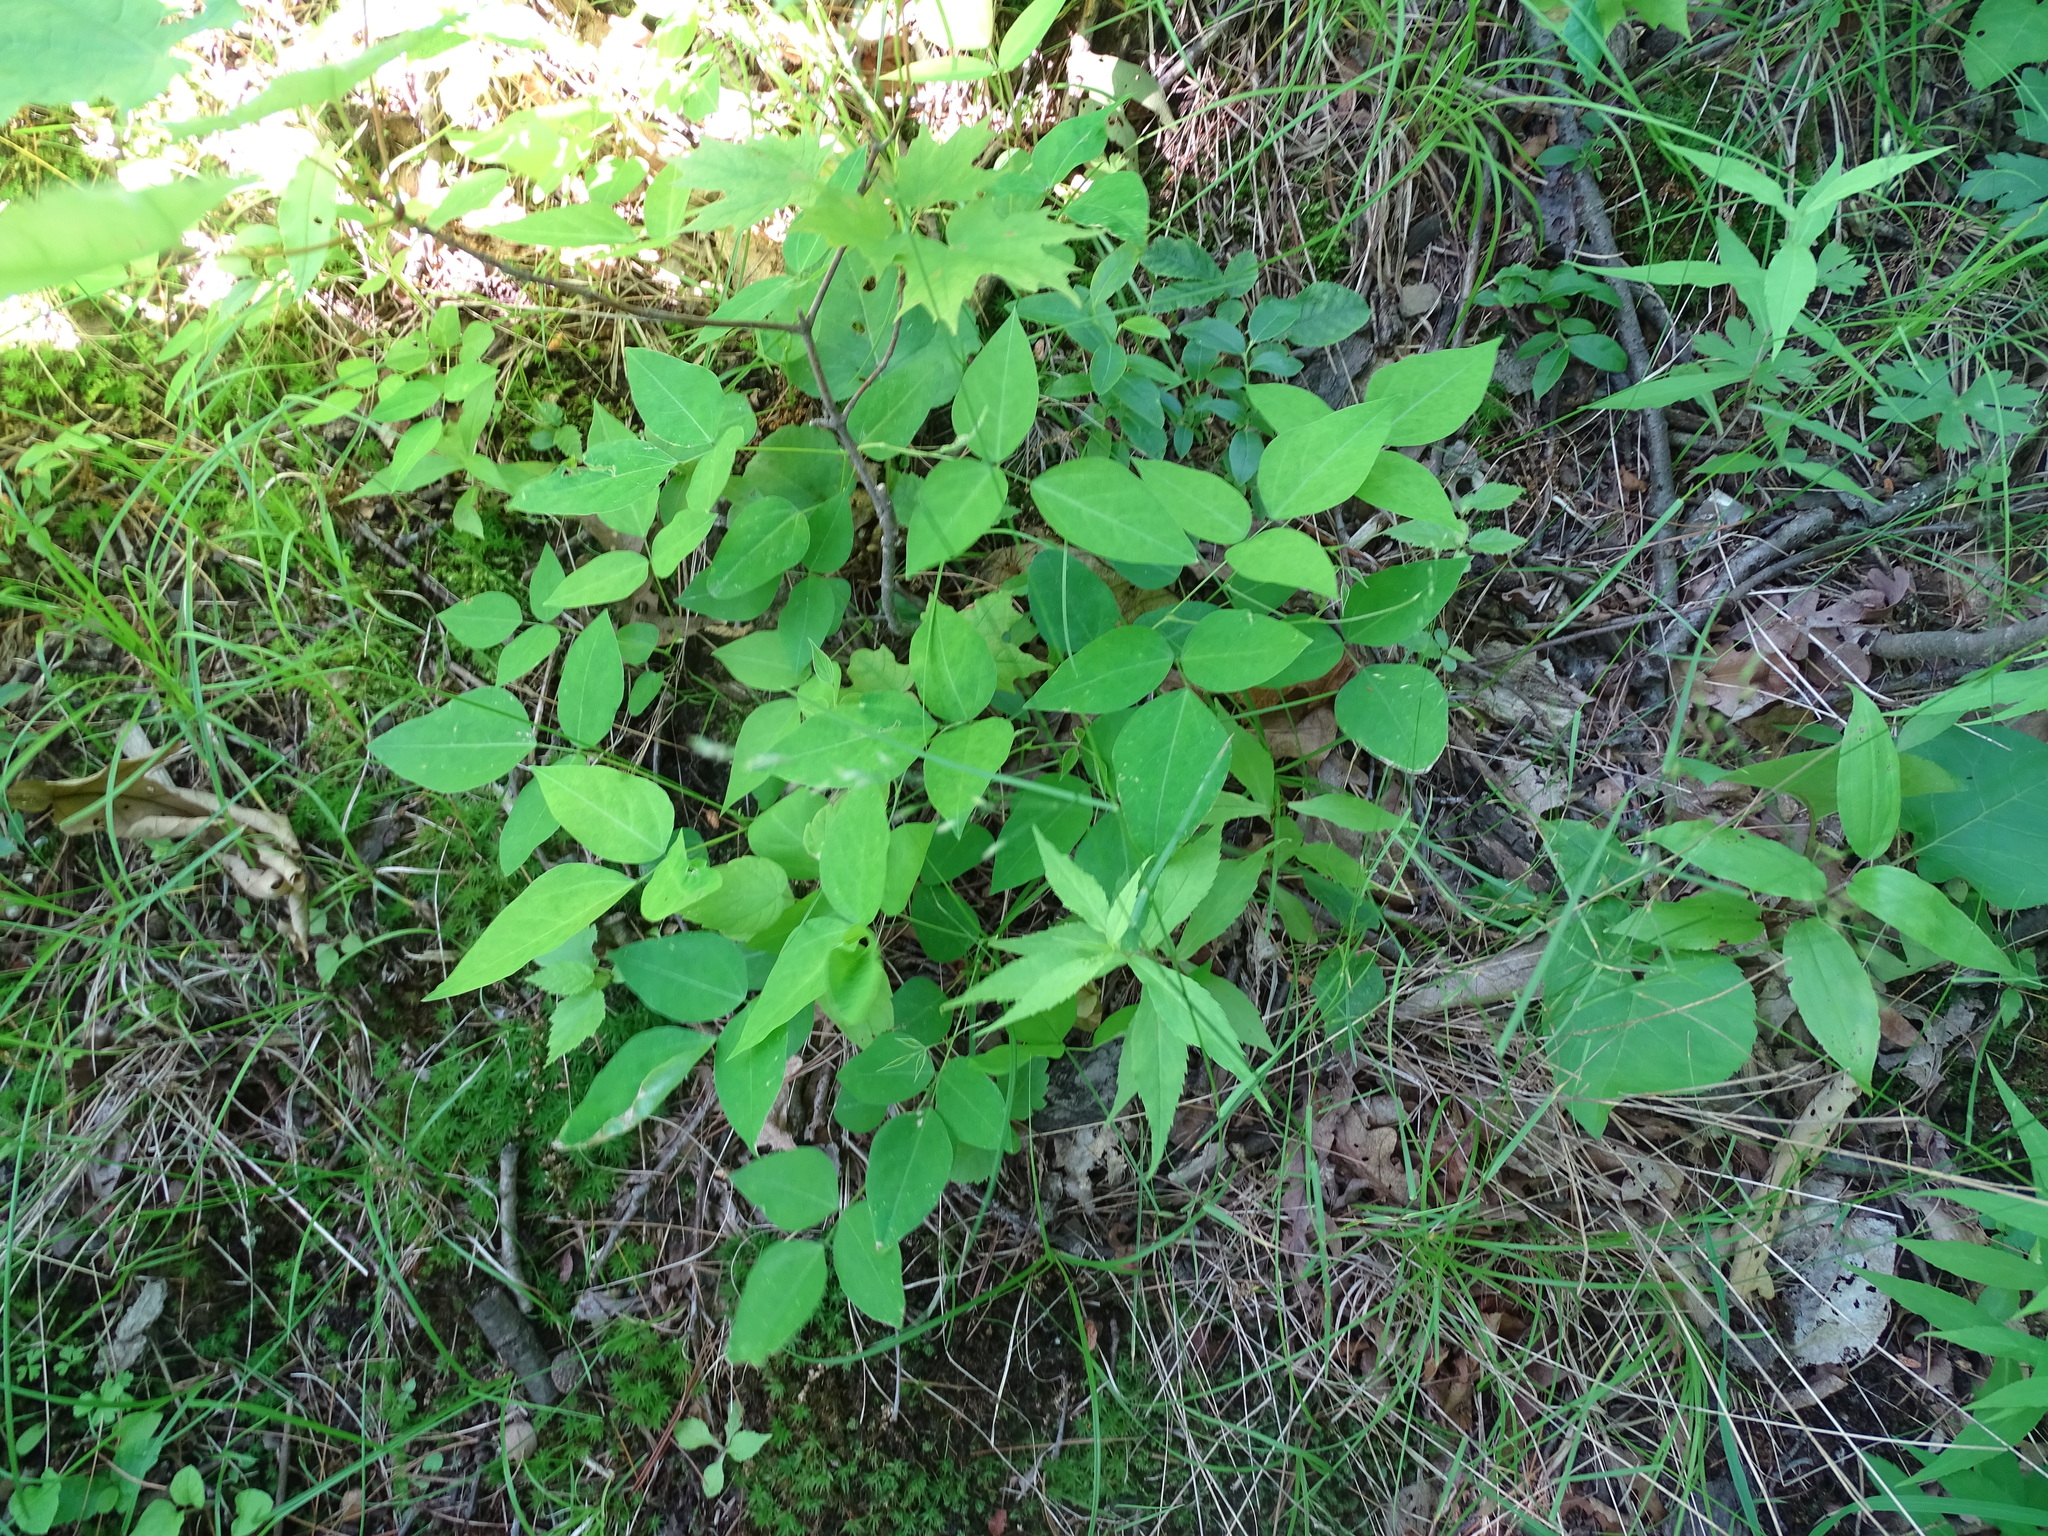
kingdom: Plantae
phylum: Tracheophyta
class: Magnoliopsida
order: Fabales
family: Fabaceae
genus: Amphicarpaea
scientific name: Amphicarpaea bracteata
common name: American hog peanut
